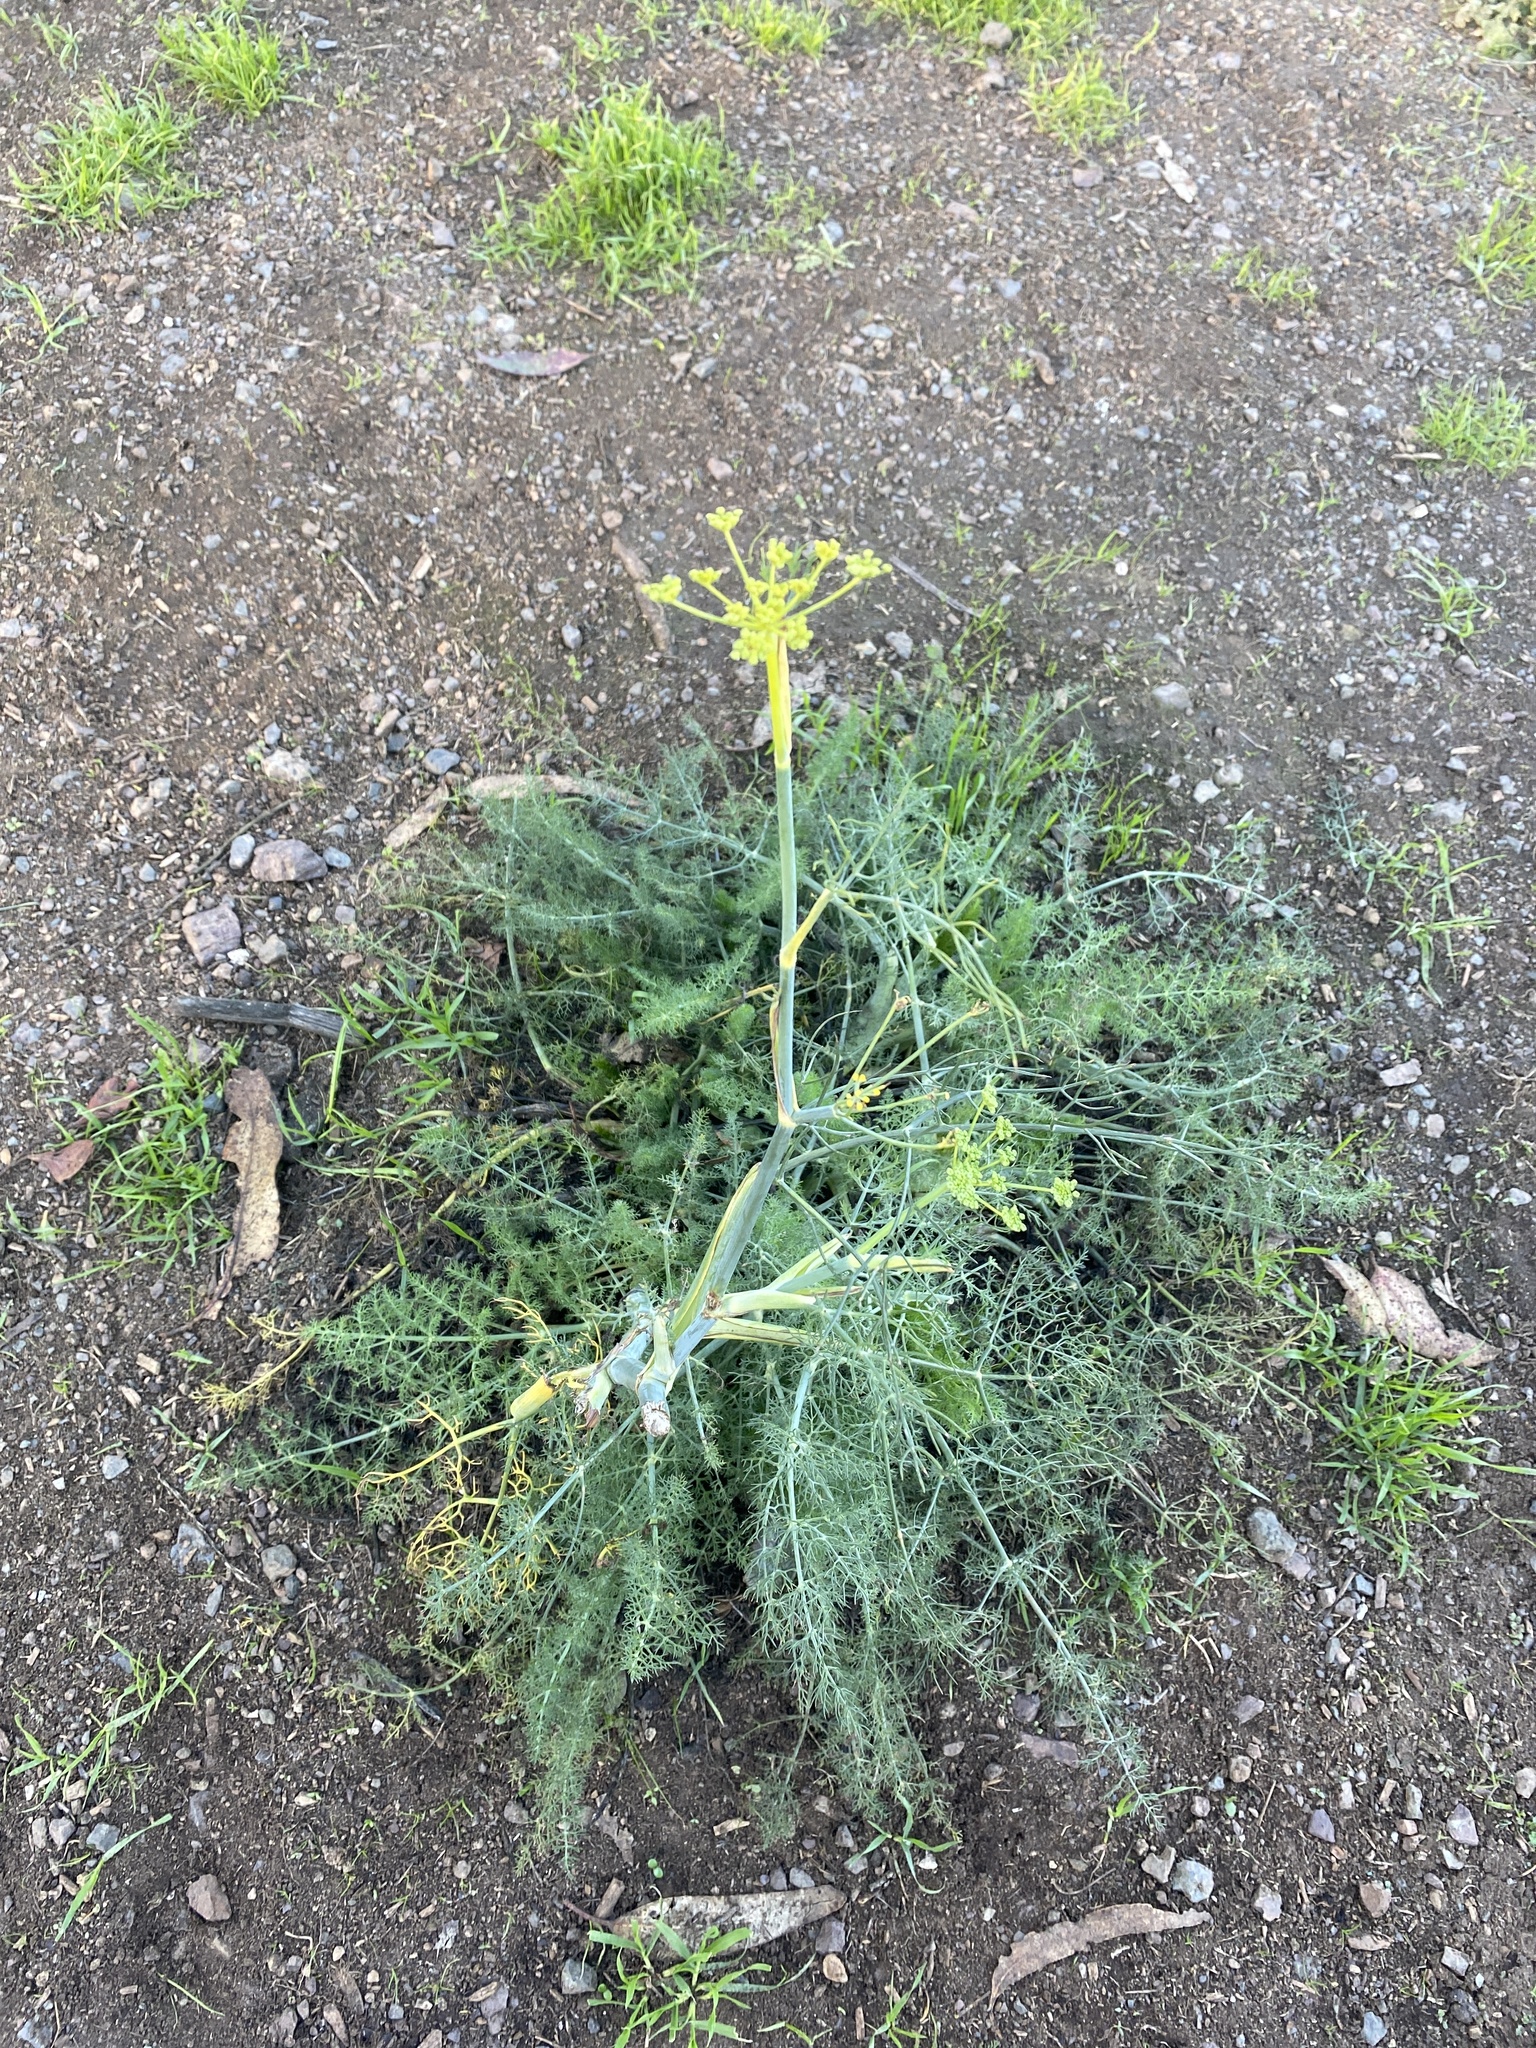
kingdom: Plantae
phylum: Tracheophyta
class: Magnoliopsida
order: Apiales
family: Apiaceae
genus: Foeniculum
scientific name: Foeniculum vulgare
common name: Fennel
